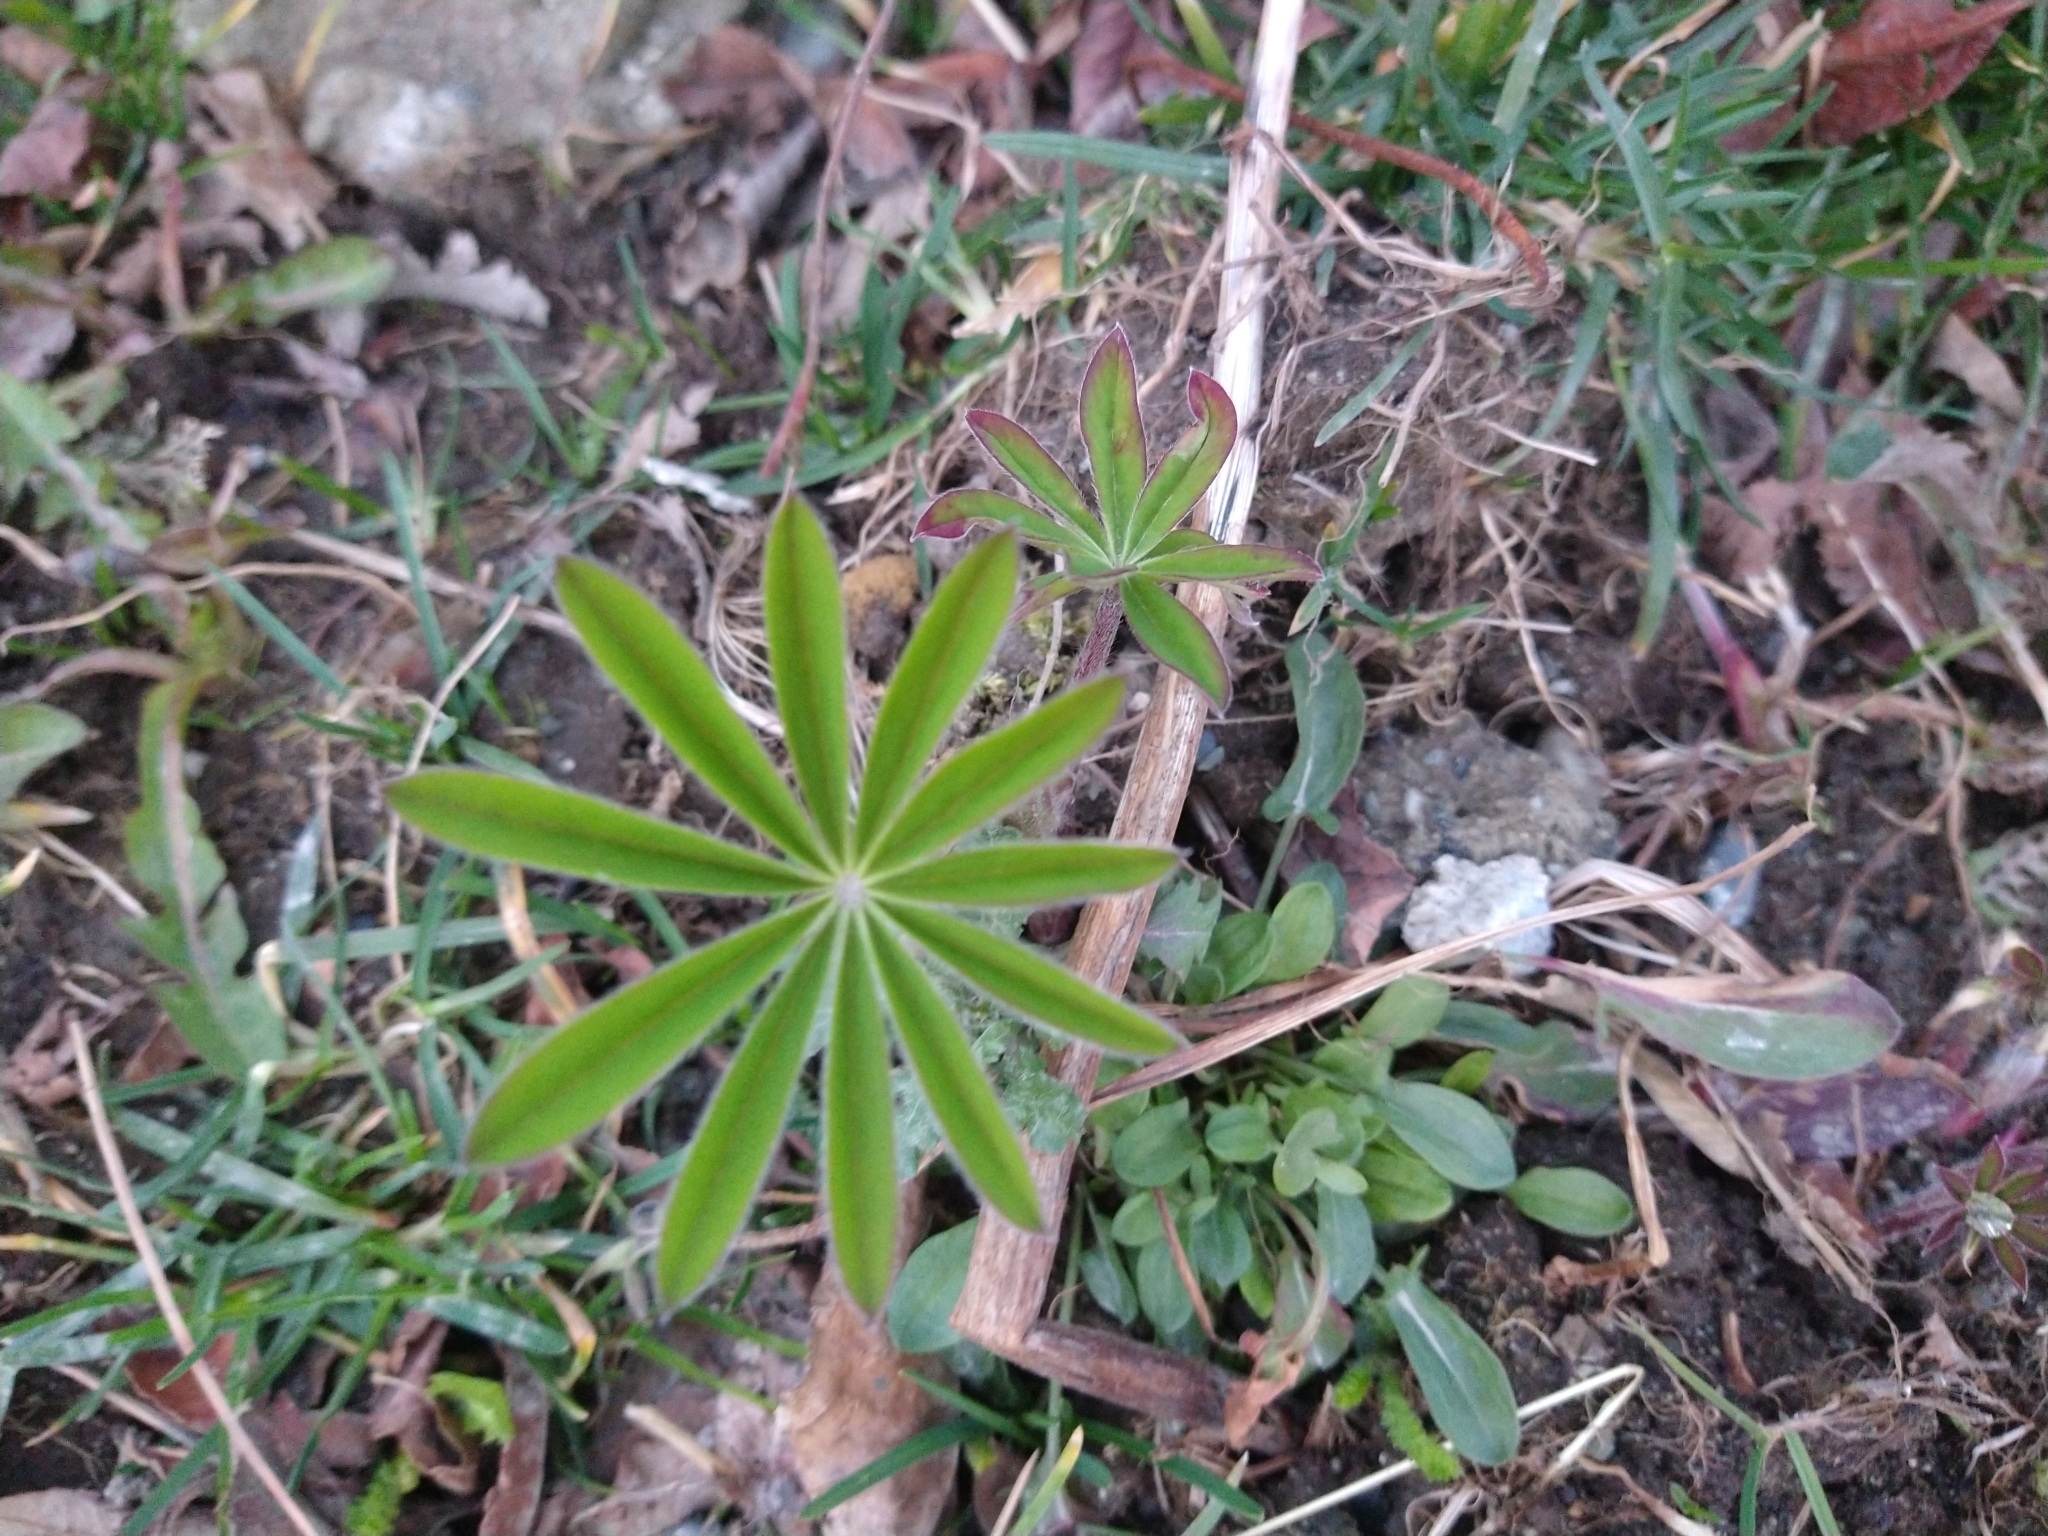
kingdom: Plantae
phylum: Tracheophyta
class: Magnoliopsida
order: Fabales
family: Fabaceae
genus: Lupinus
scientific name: Lupinus polyphyllus
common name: Garden lupin
